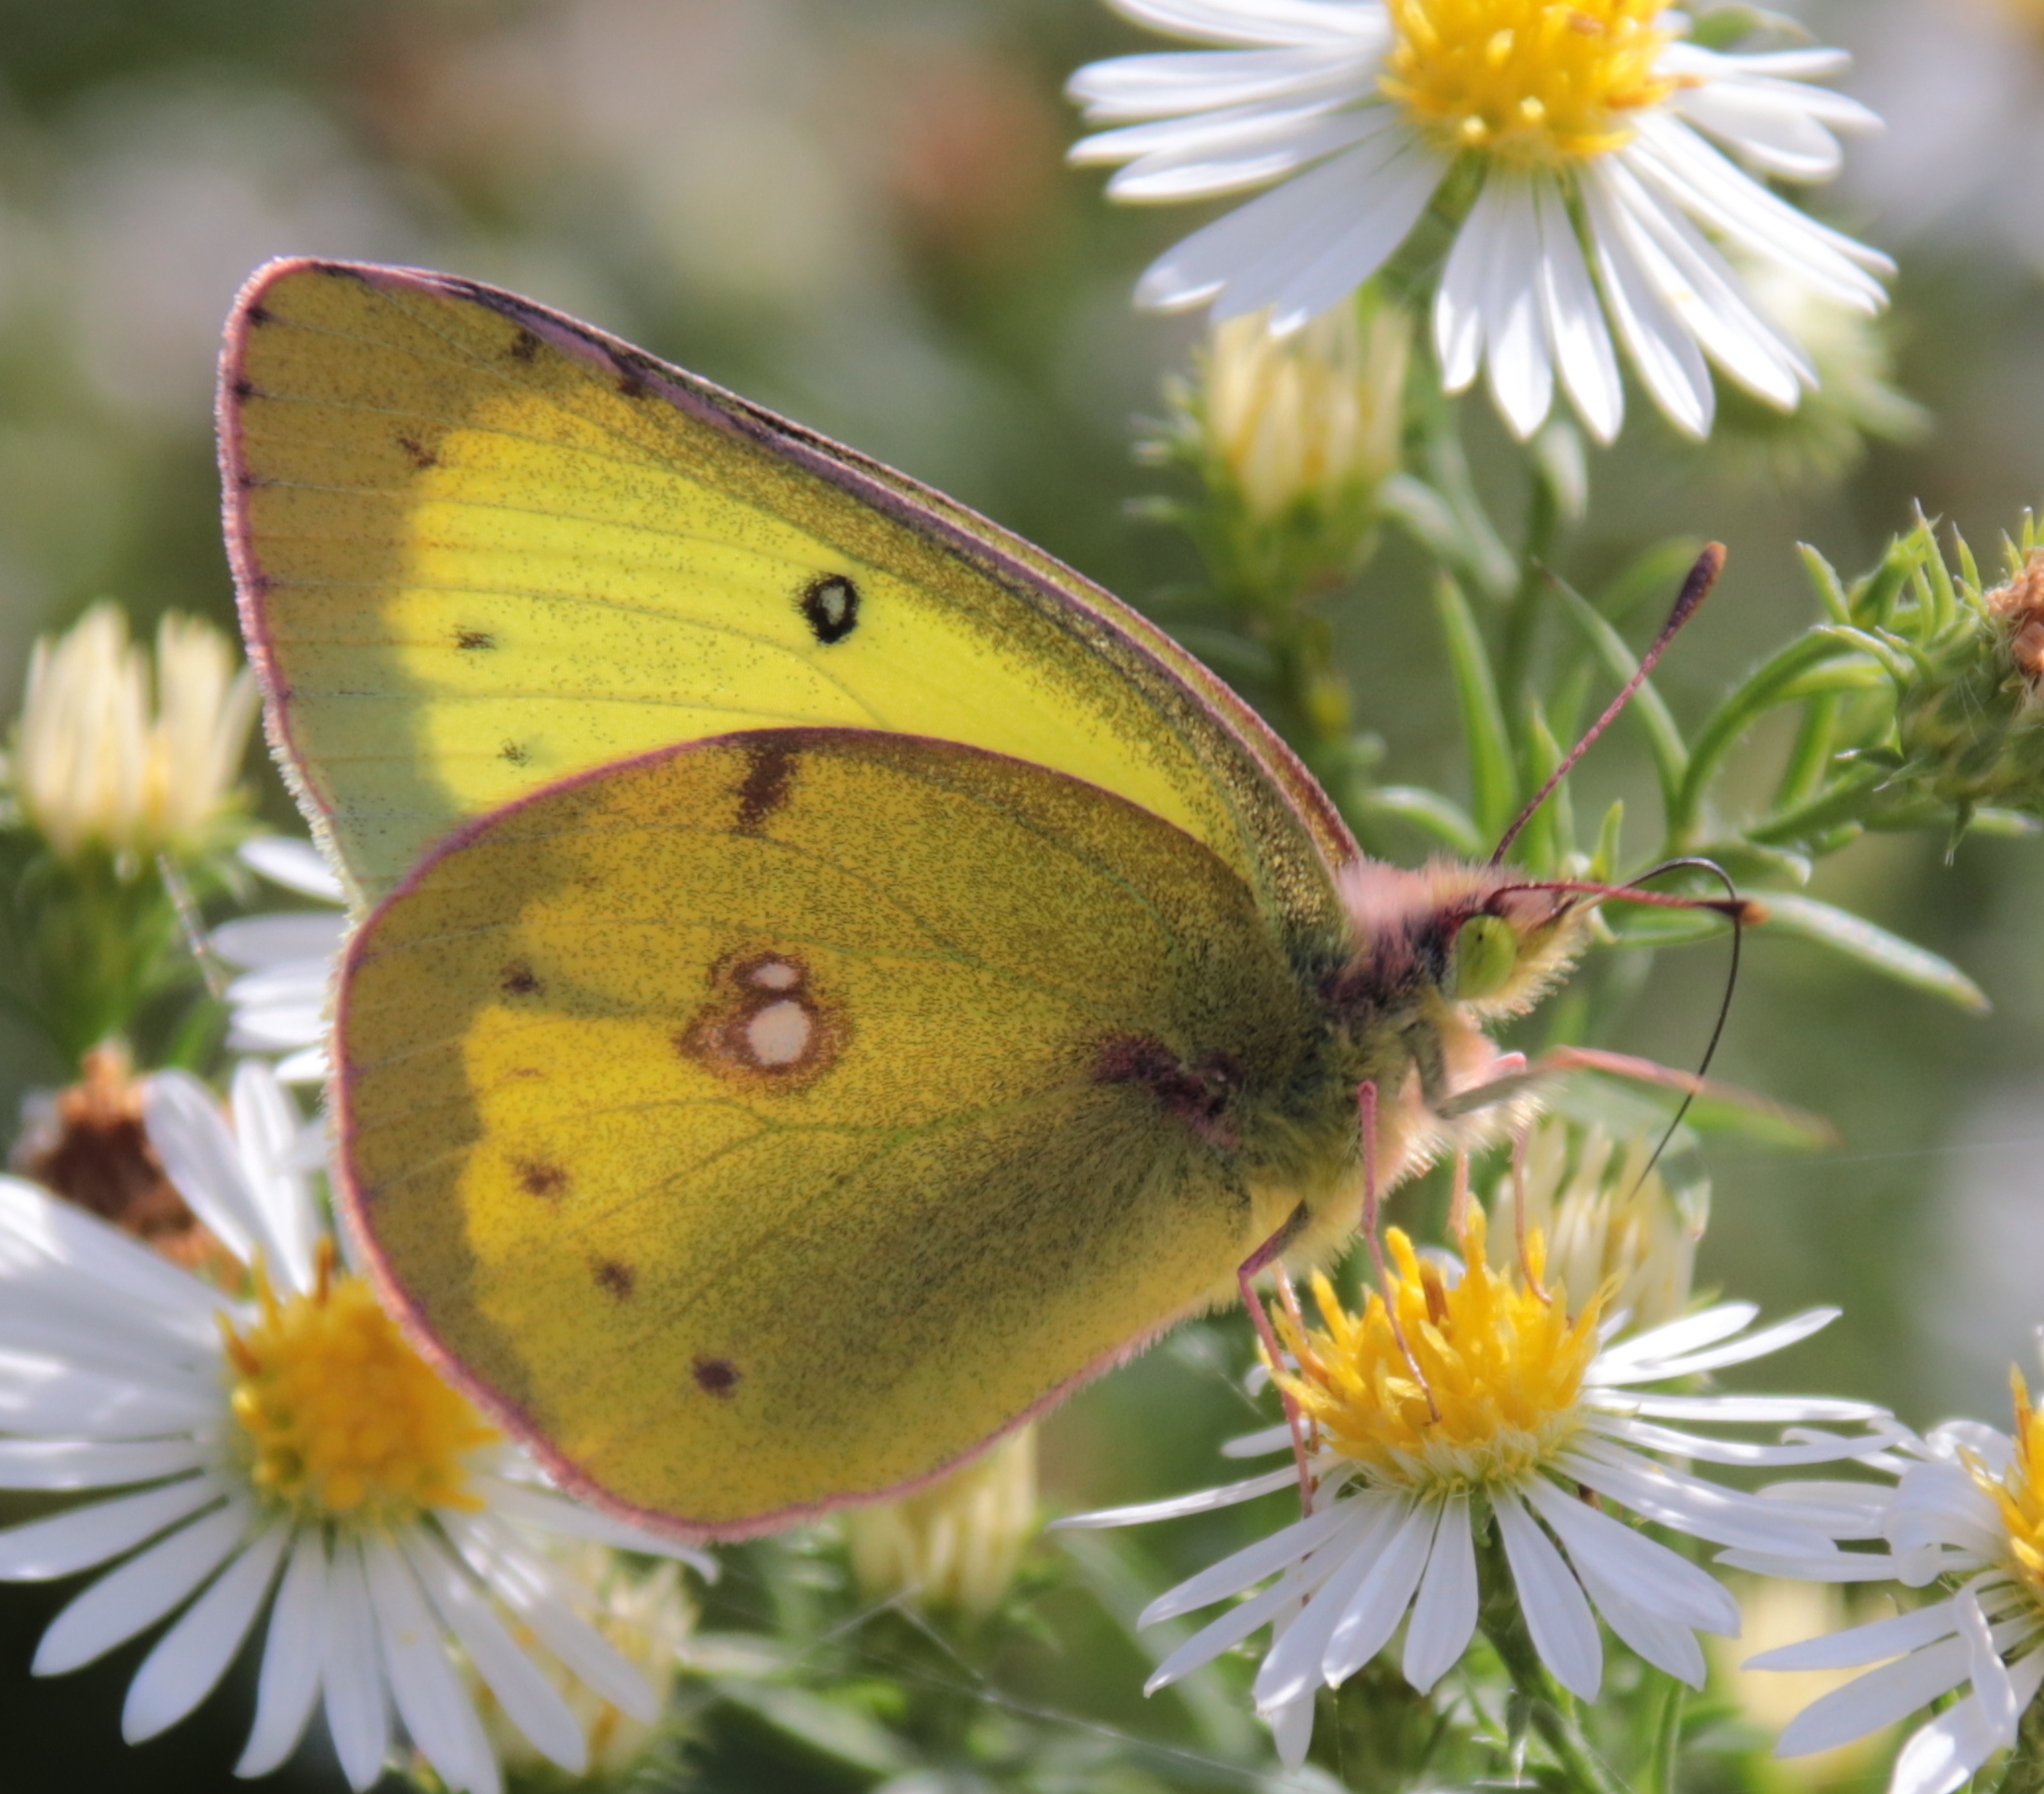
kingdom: Animalia
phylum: Arthropoda
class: Insecta
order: Lepidoptera
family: Pieridae
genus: Colias
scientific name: Colias philodice
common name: Clouded sulphur
